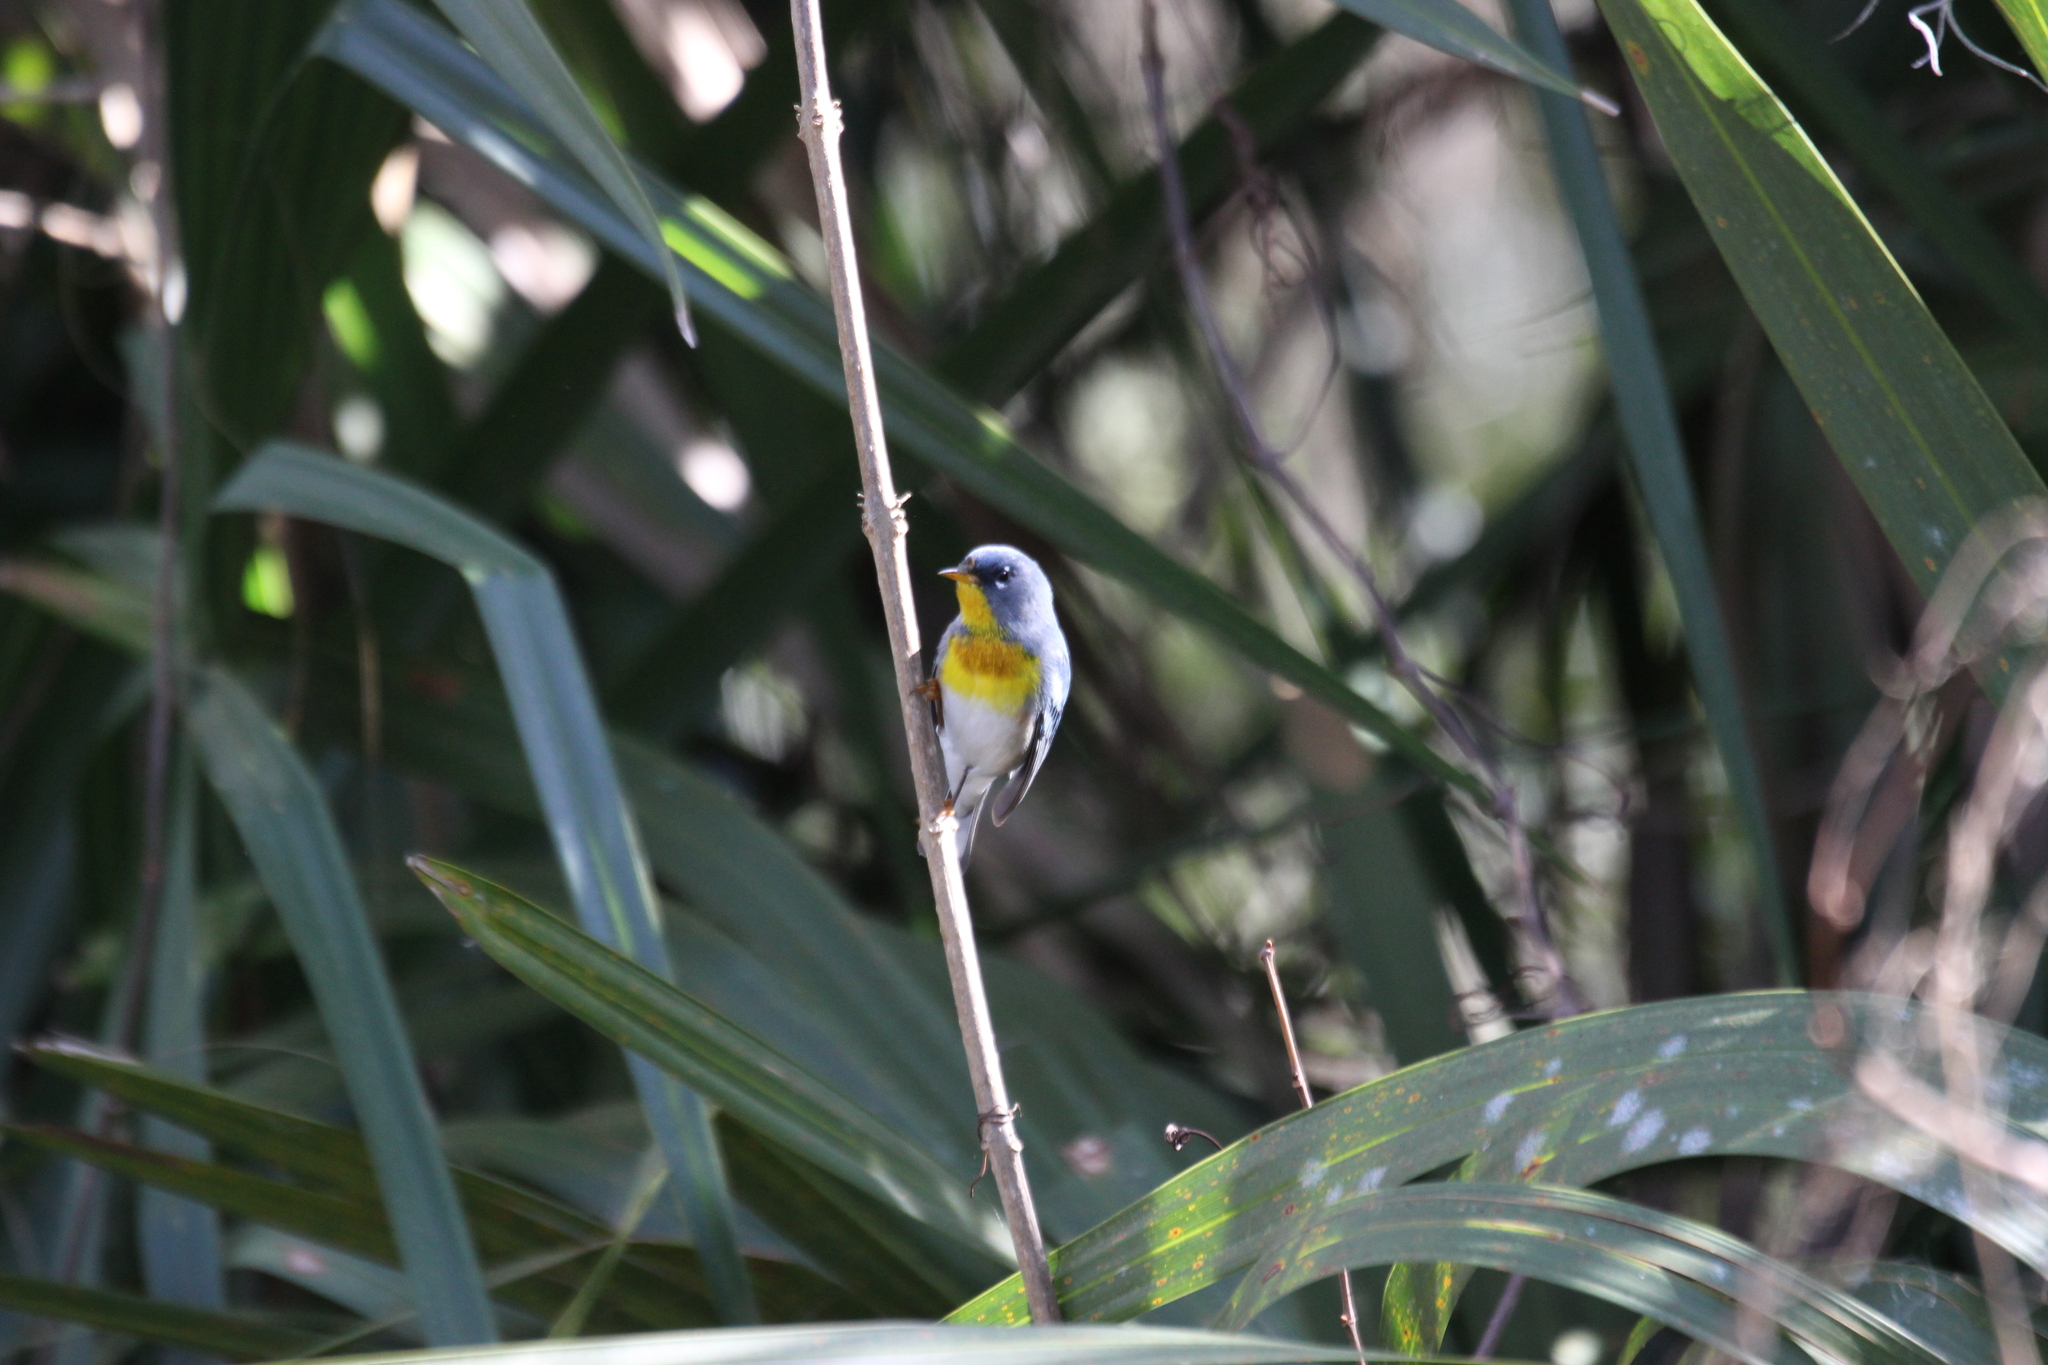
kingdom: Animalia
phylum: Chordata
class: Aves
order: Passeriformes
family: Parulidae
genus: Setophaga
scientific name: Setophaga americana
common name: Northern parula
